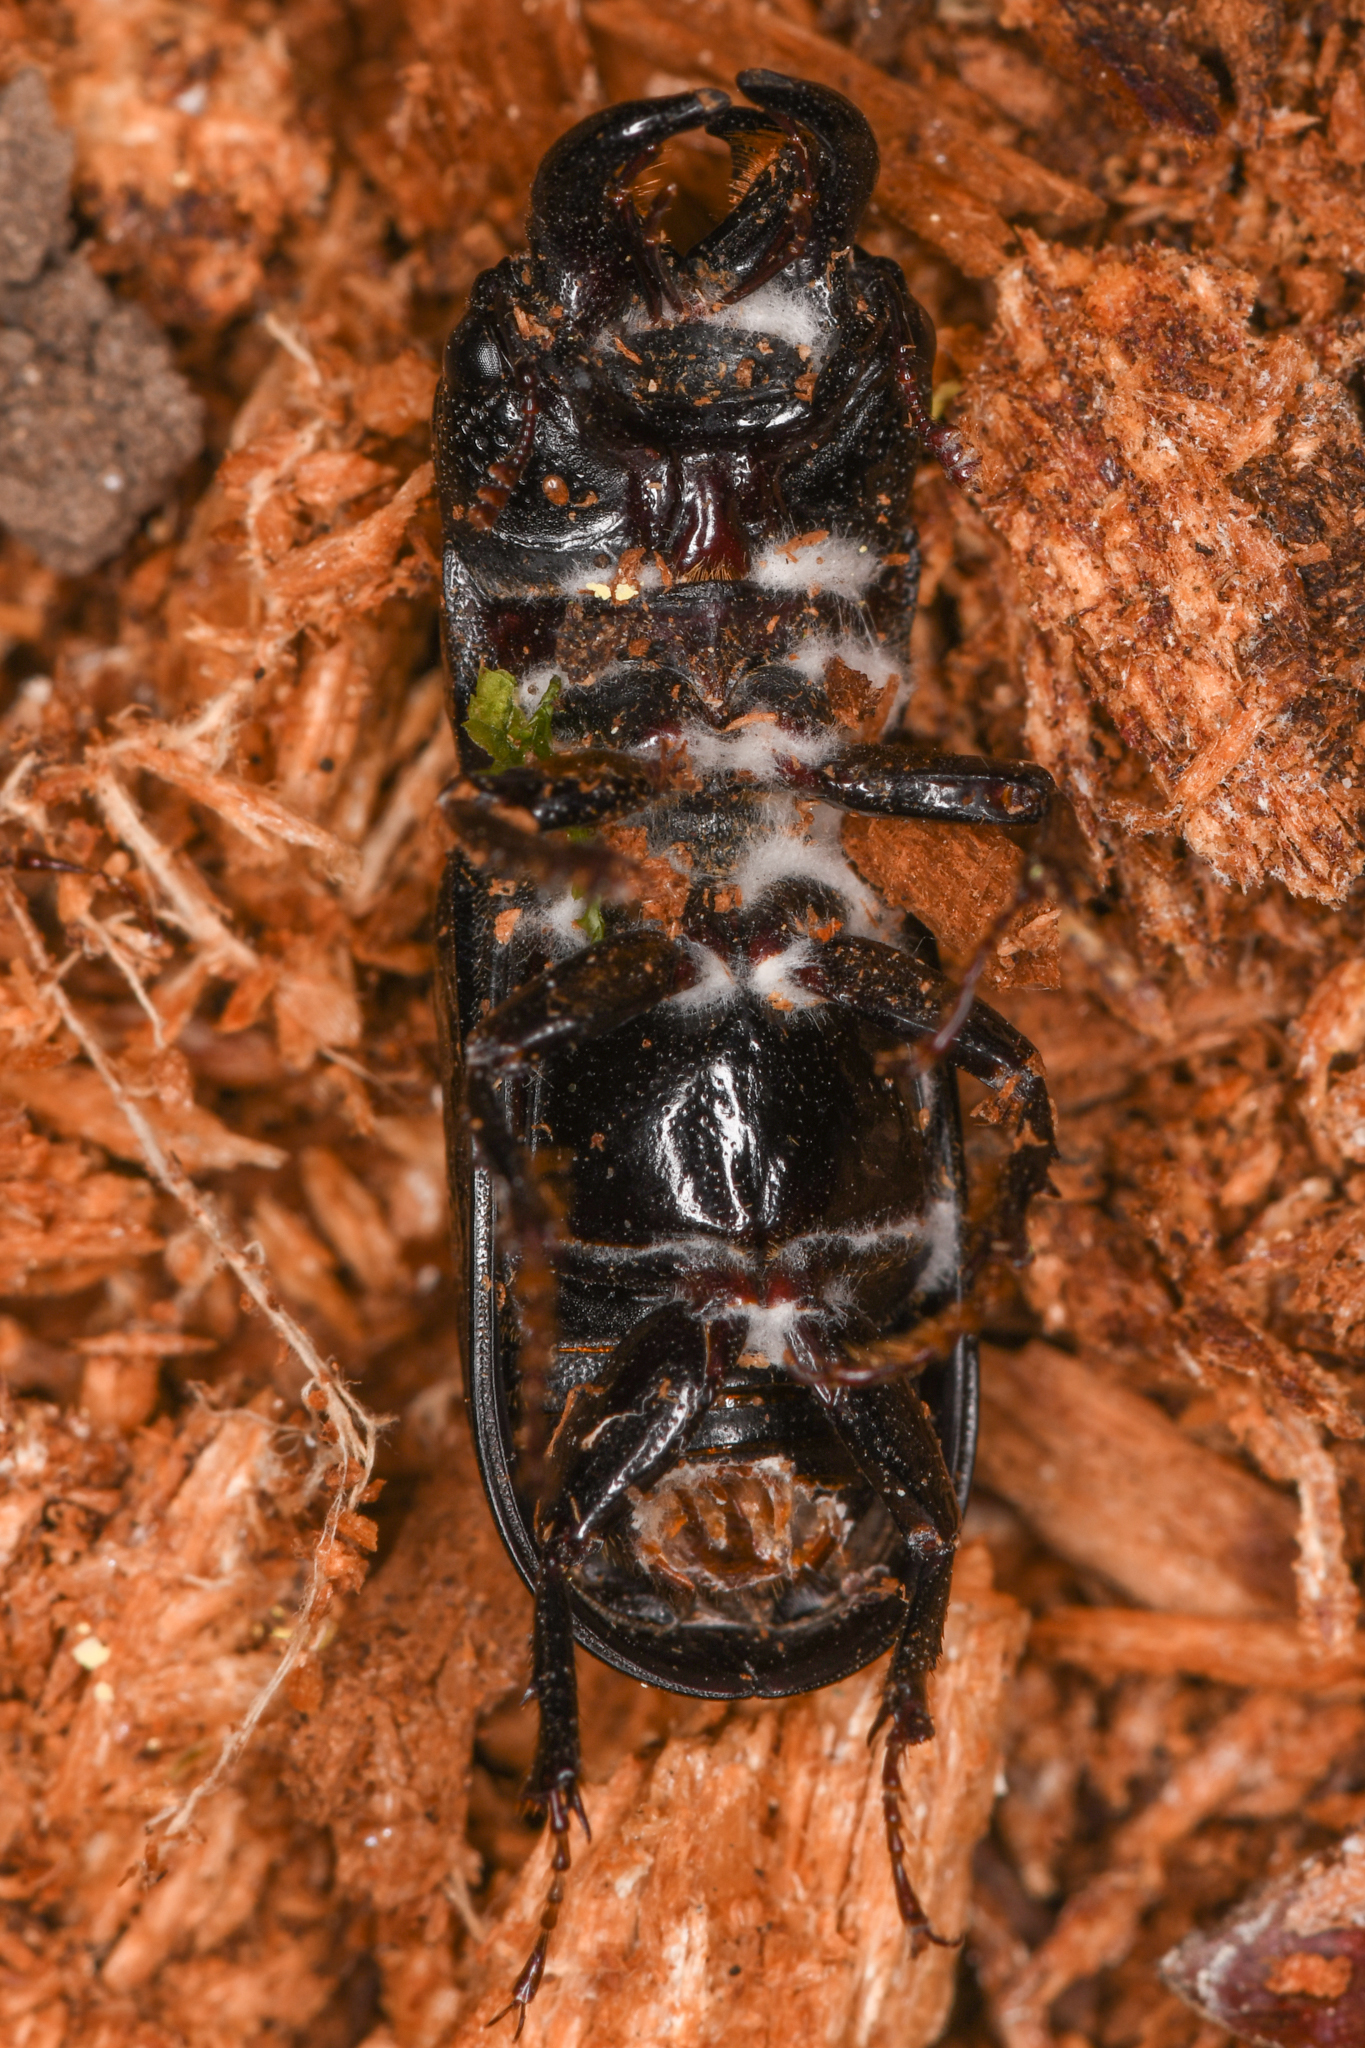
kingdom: Animalia
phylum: Arthropoda
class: Insecta
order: Coleoptera
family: Lucanidae
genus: Ceruchus
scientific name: Ceruchus striatus
